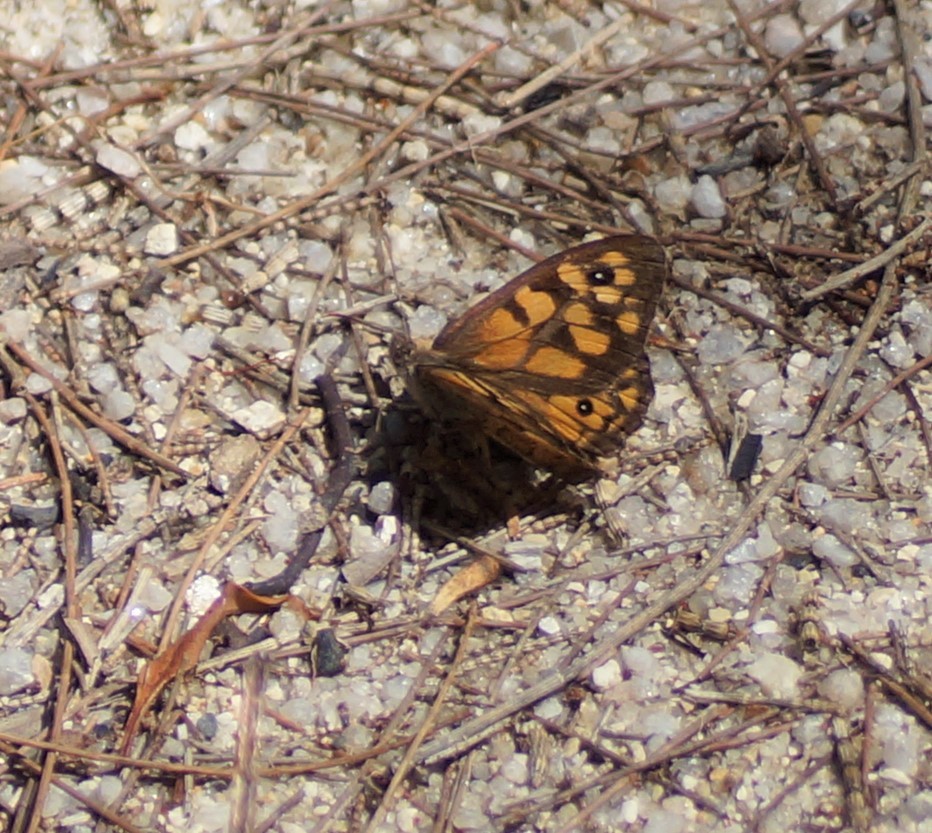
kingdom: Animalia
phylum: Arthropoda
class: Insecta
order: Lepidoptera
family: Nymphalidae
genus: Geitoneura
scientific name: Geitoneura klugii
